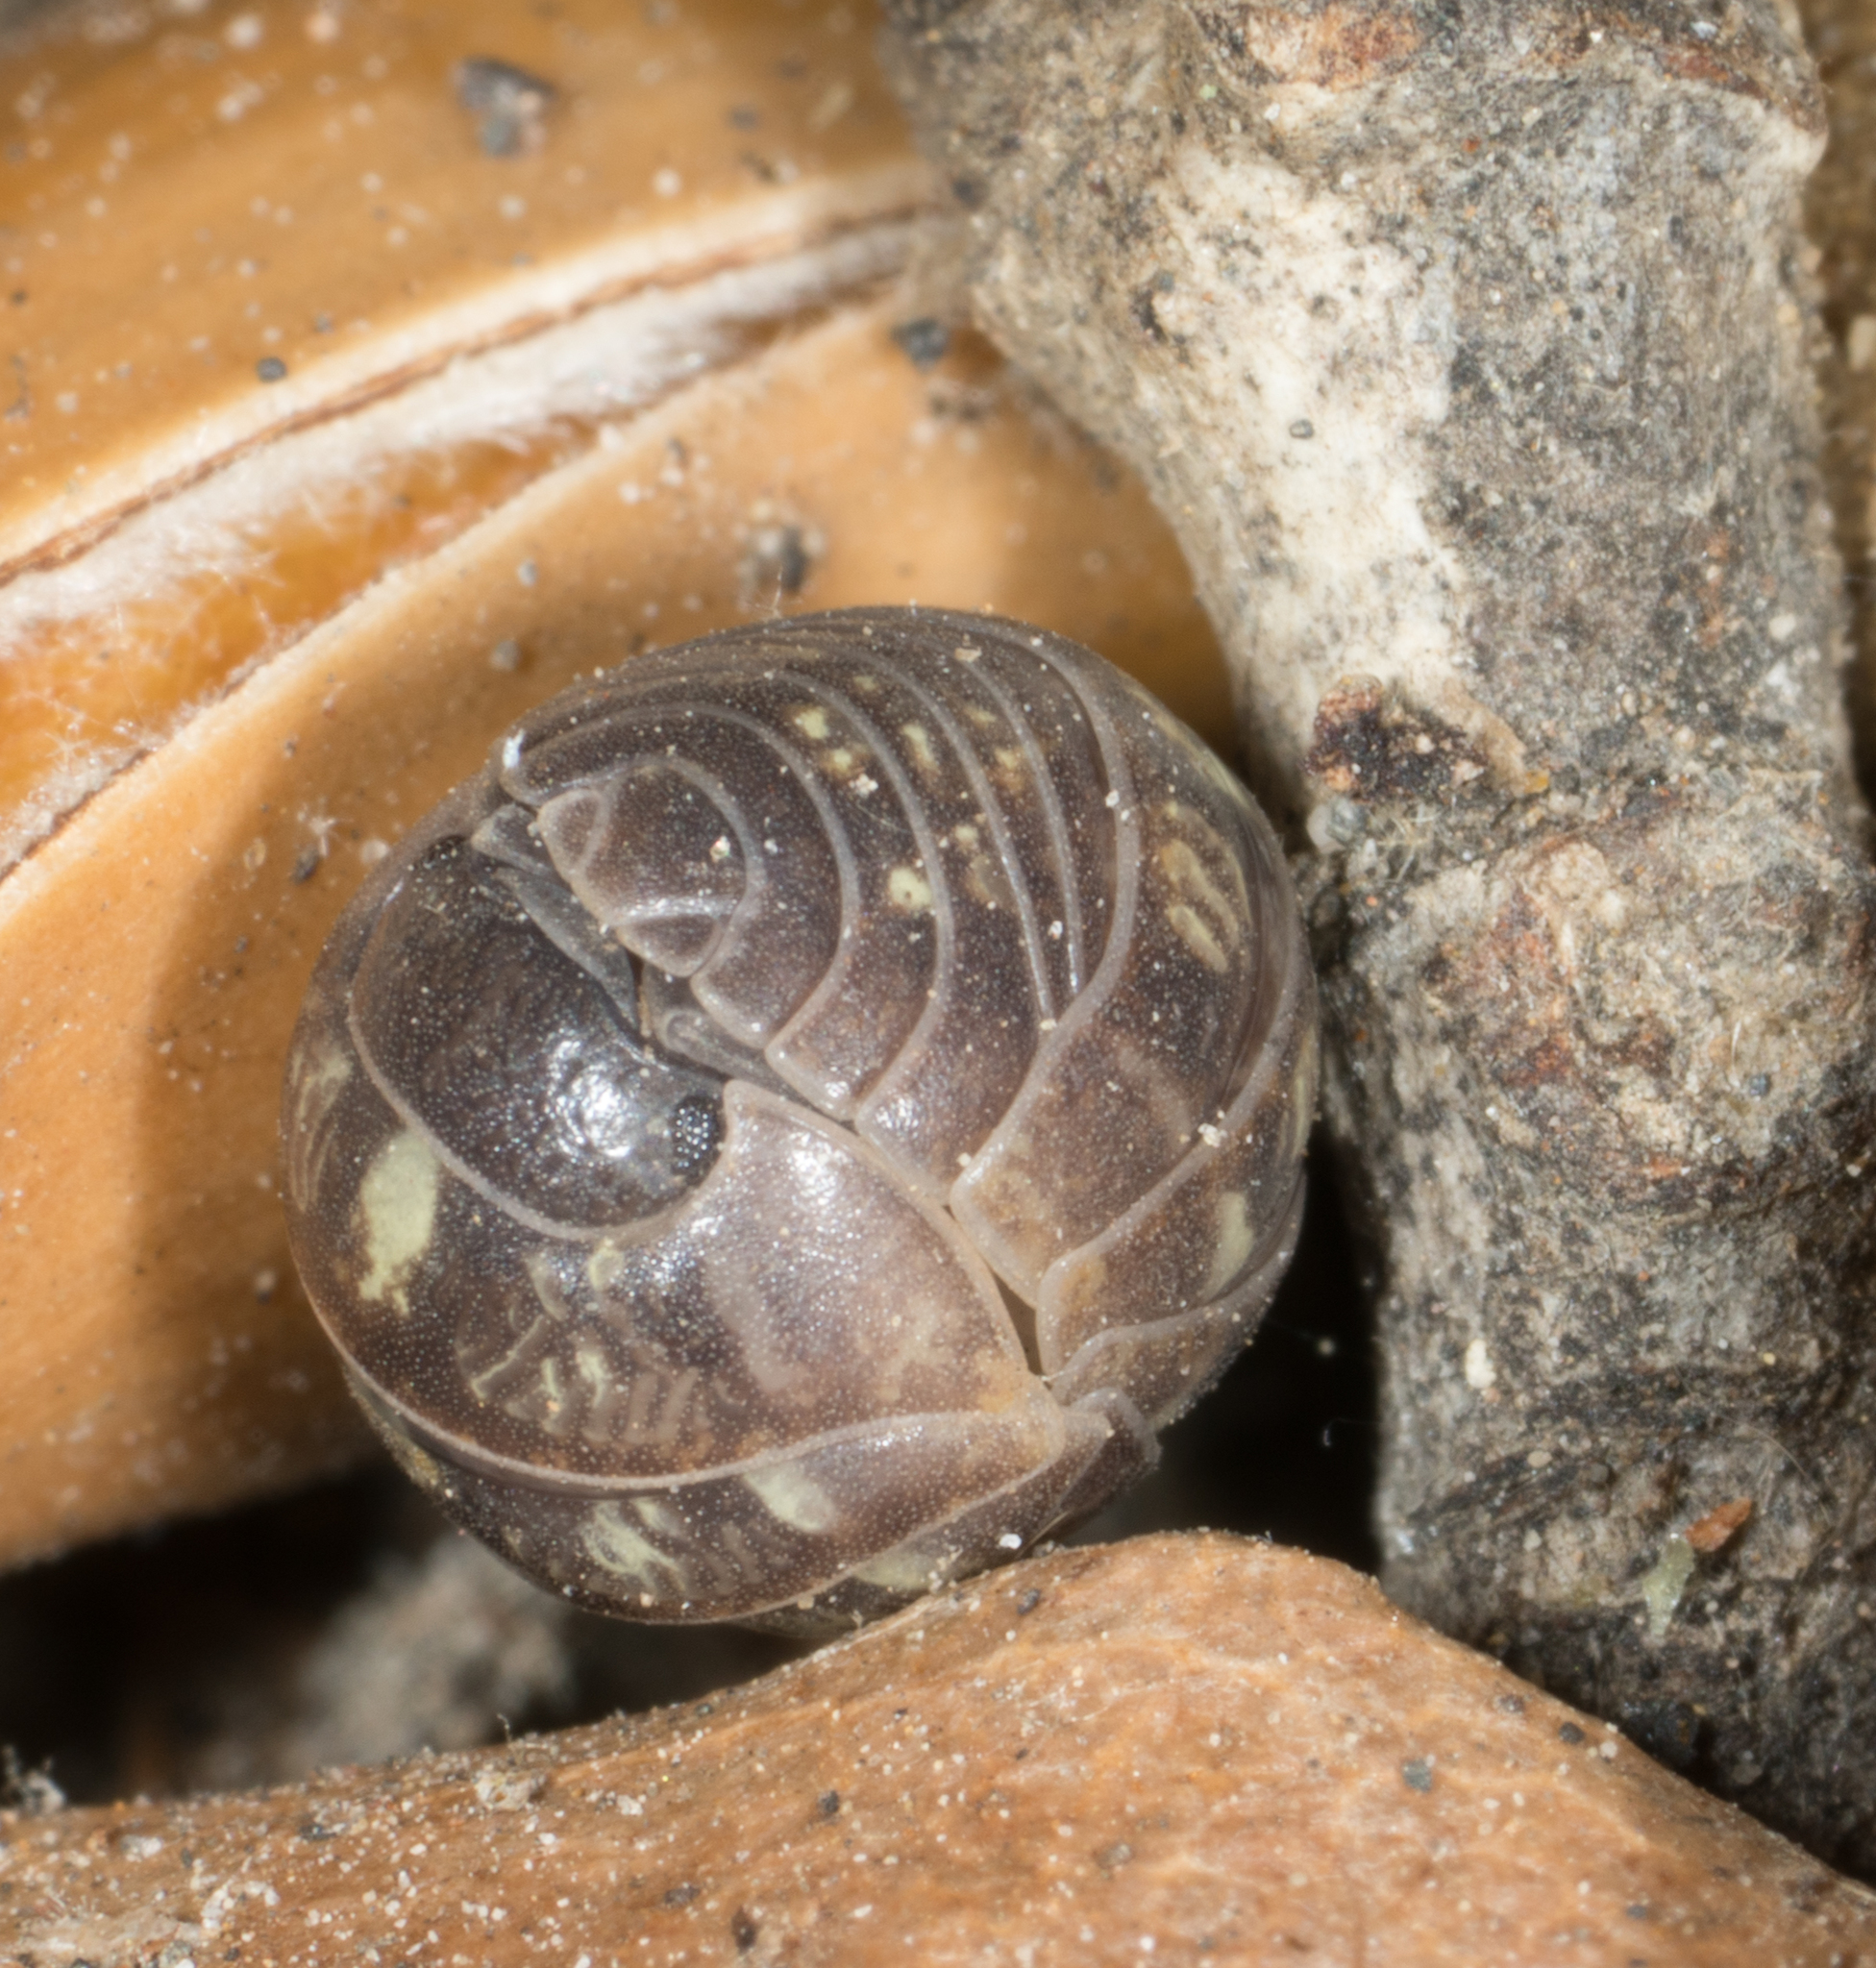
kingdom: Animalia
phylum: Arthropoda
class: Malacostraca
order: Isopoda
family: Armadillidiidae
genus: Armadillidium
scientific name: Armadillidium vulgare
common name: Common pill woodlouse
